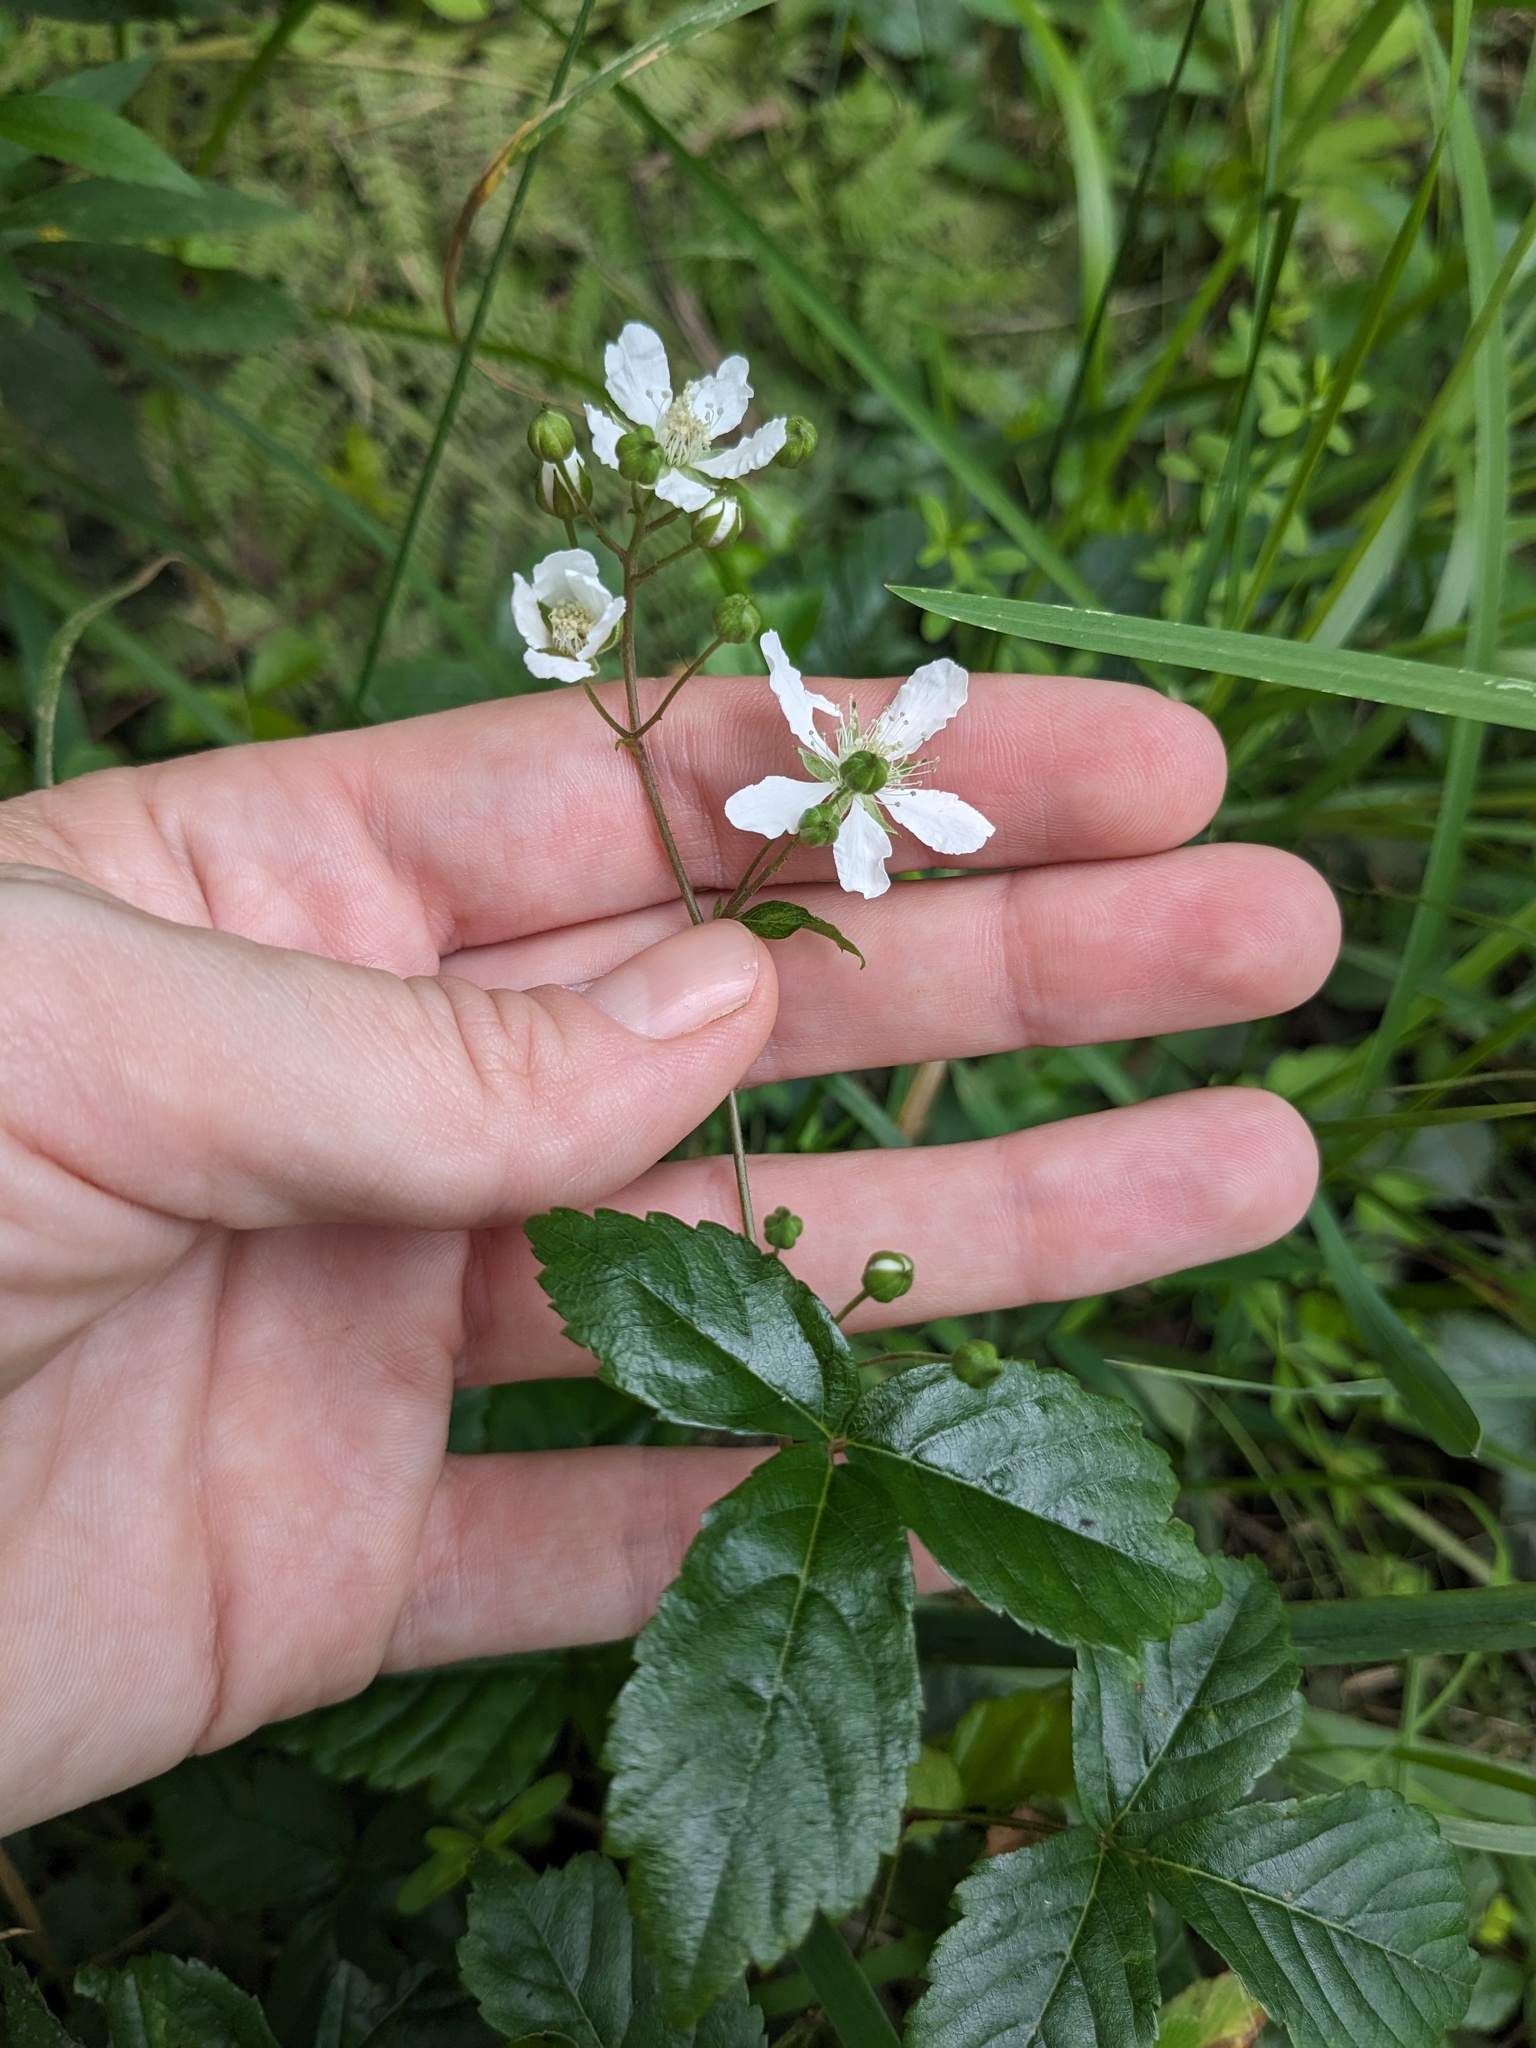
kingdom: Plantae
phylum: Tracheophyta
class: Magnoliopsida
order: Rosales
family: Rosaceae
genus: Rubus
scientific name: Rubus hispidus
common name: Running blackberry
